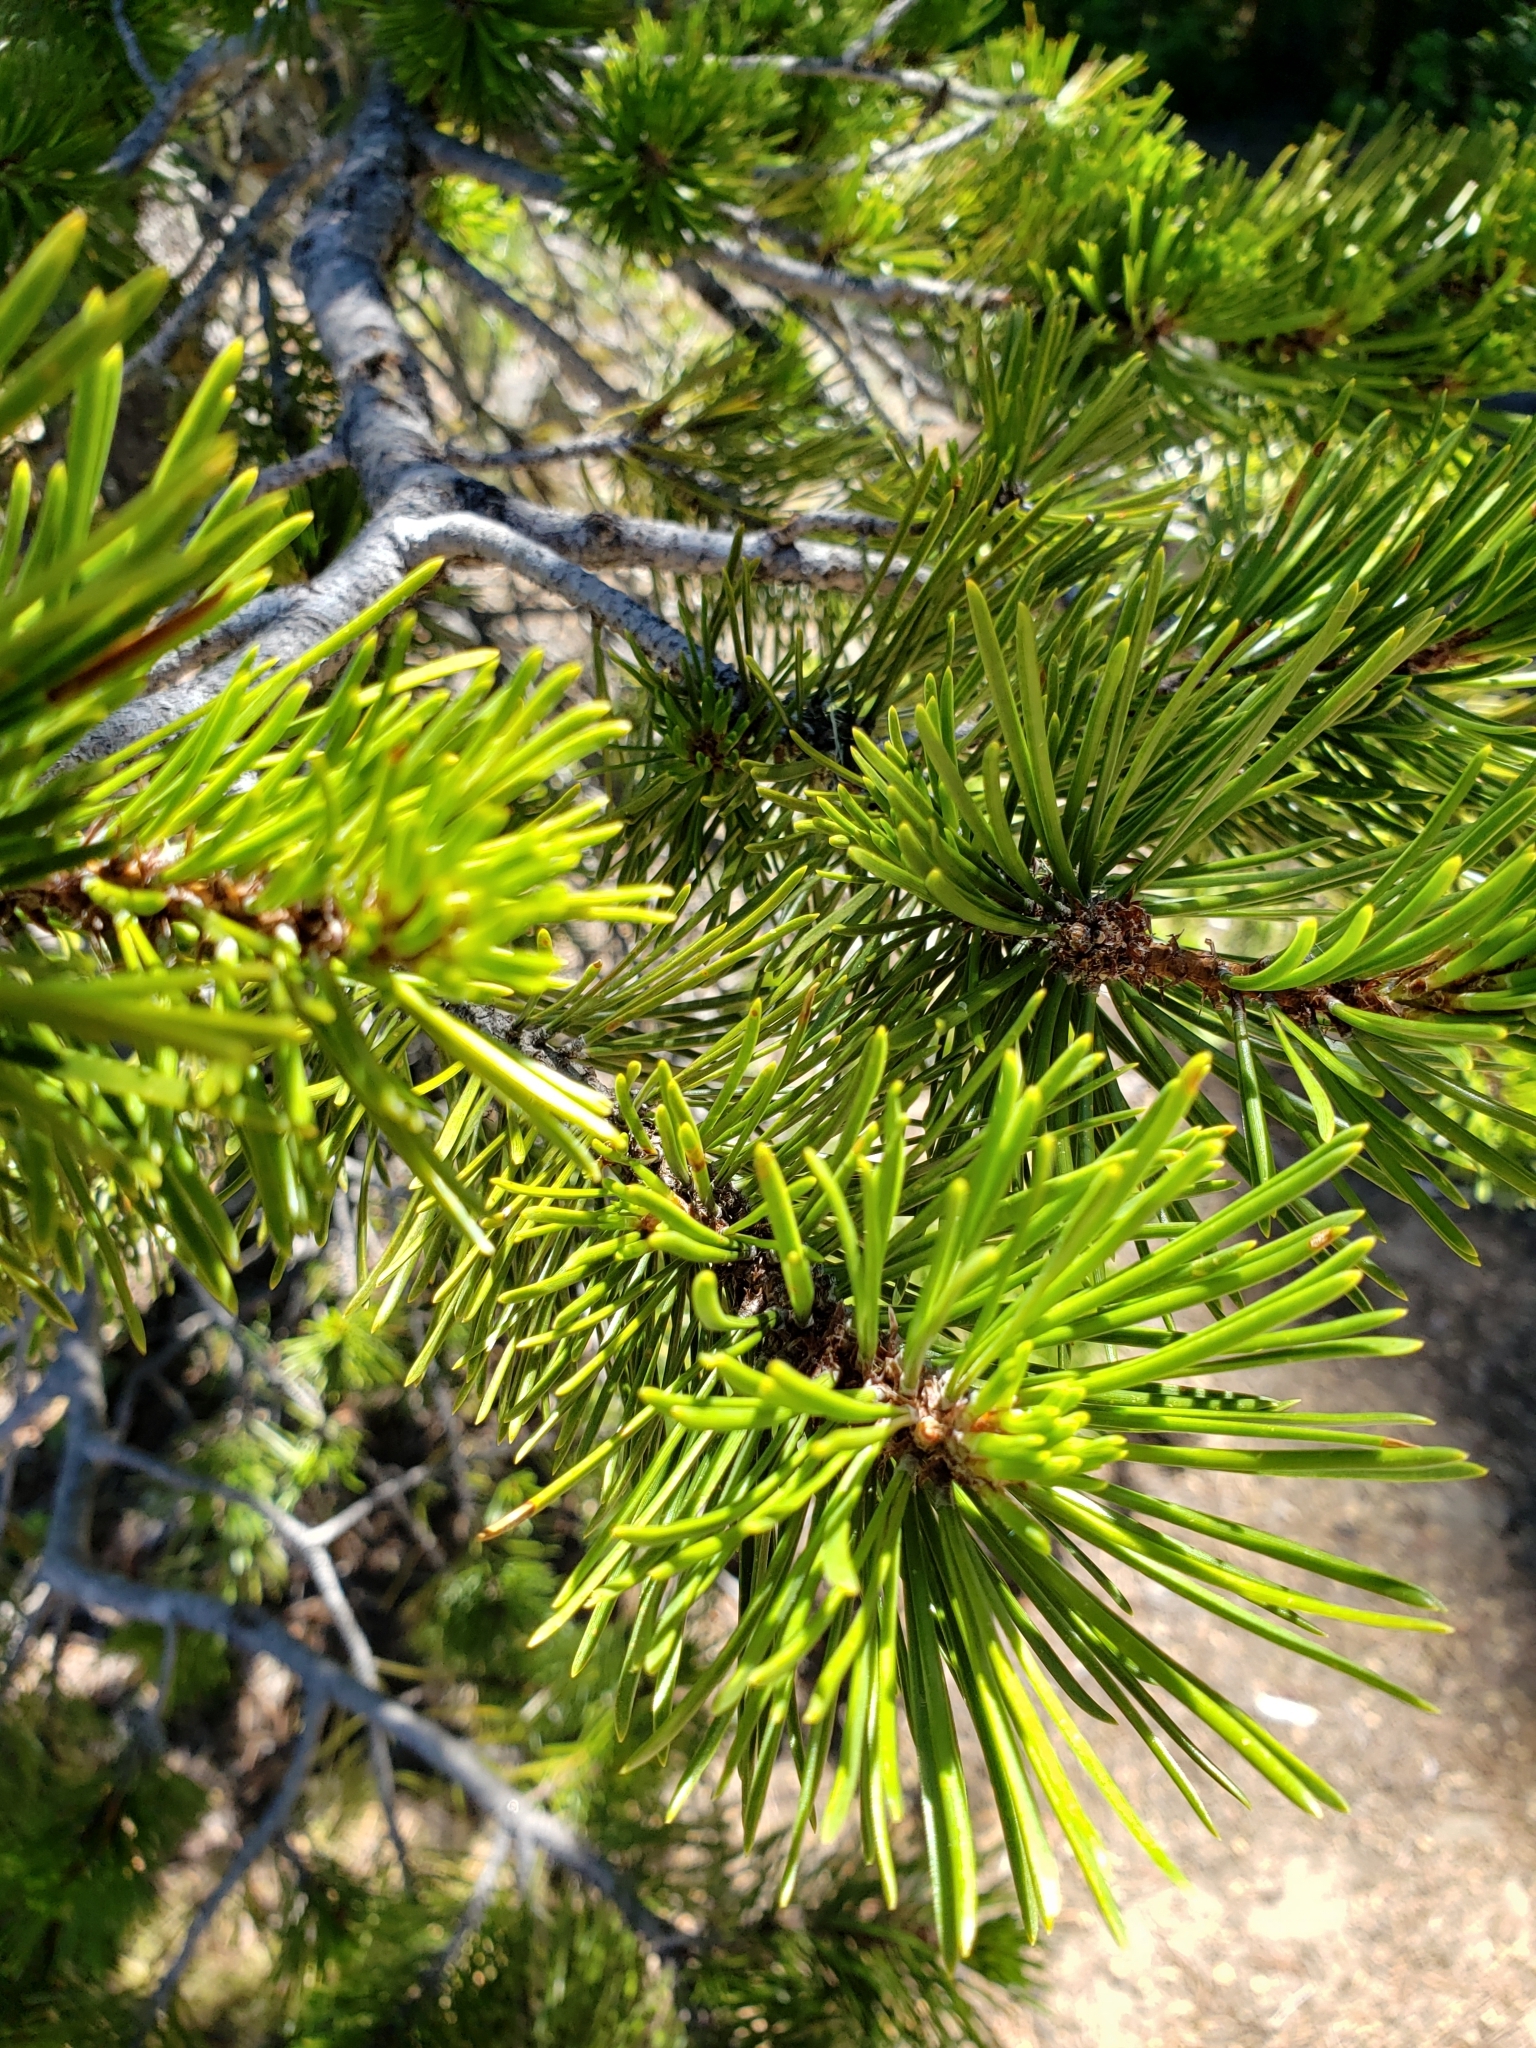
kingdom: Plantae
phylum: Tracheophyta
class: Pinopsida
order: Pinales
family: Pinaceae
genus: Pinus
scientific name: Pinus contorta
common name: Lodgepole pine
